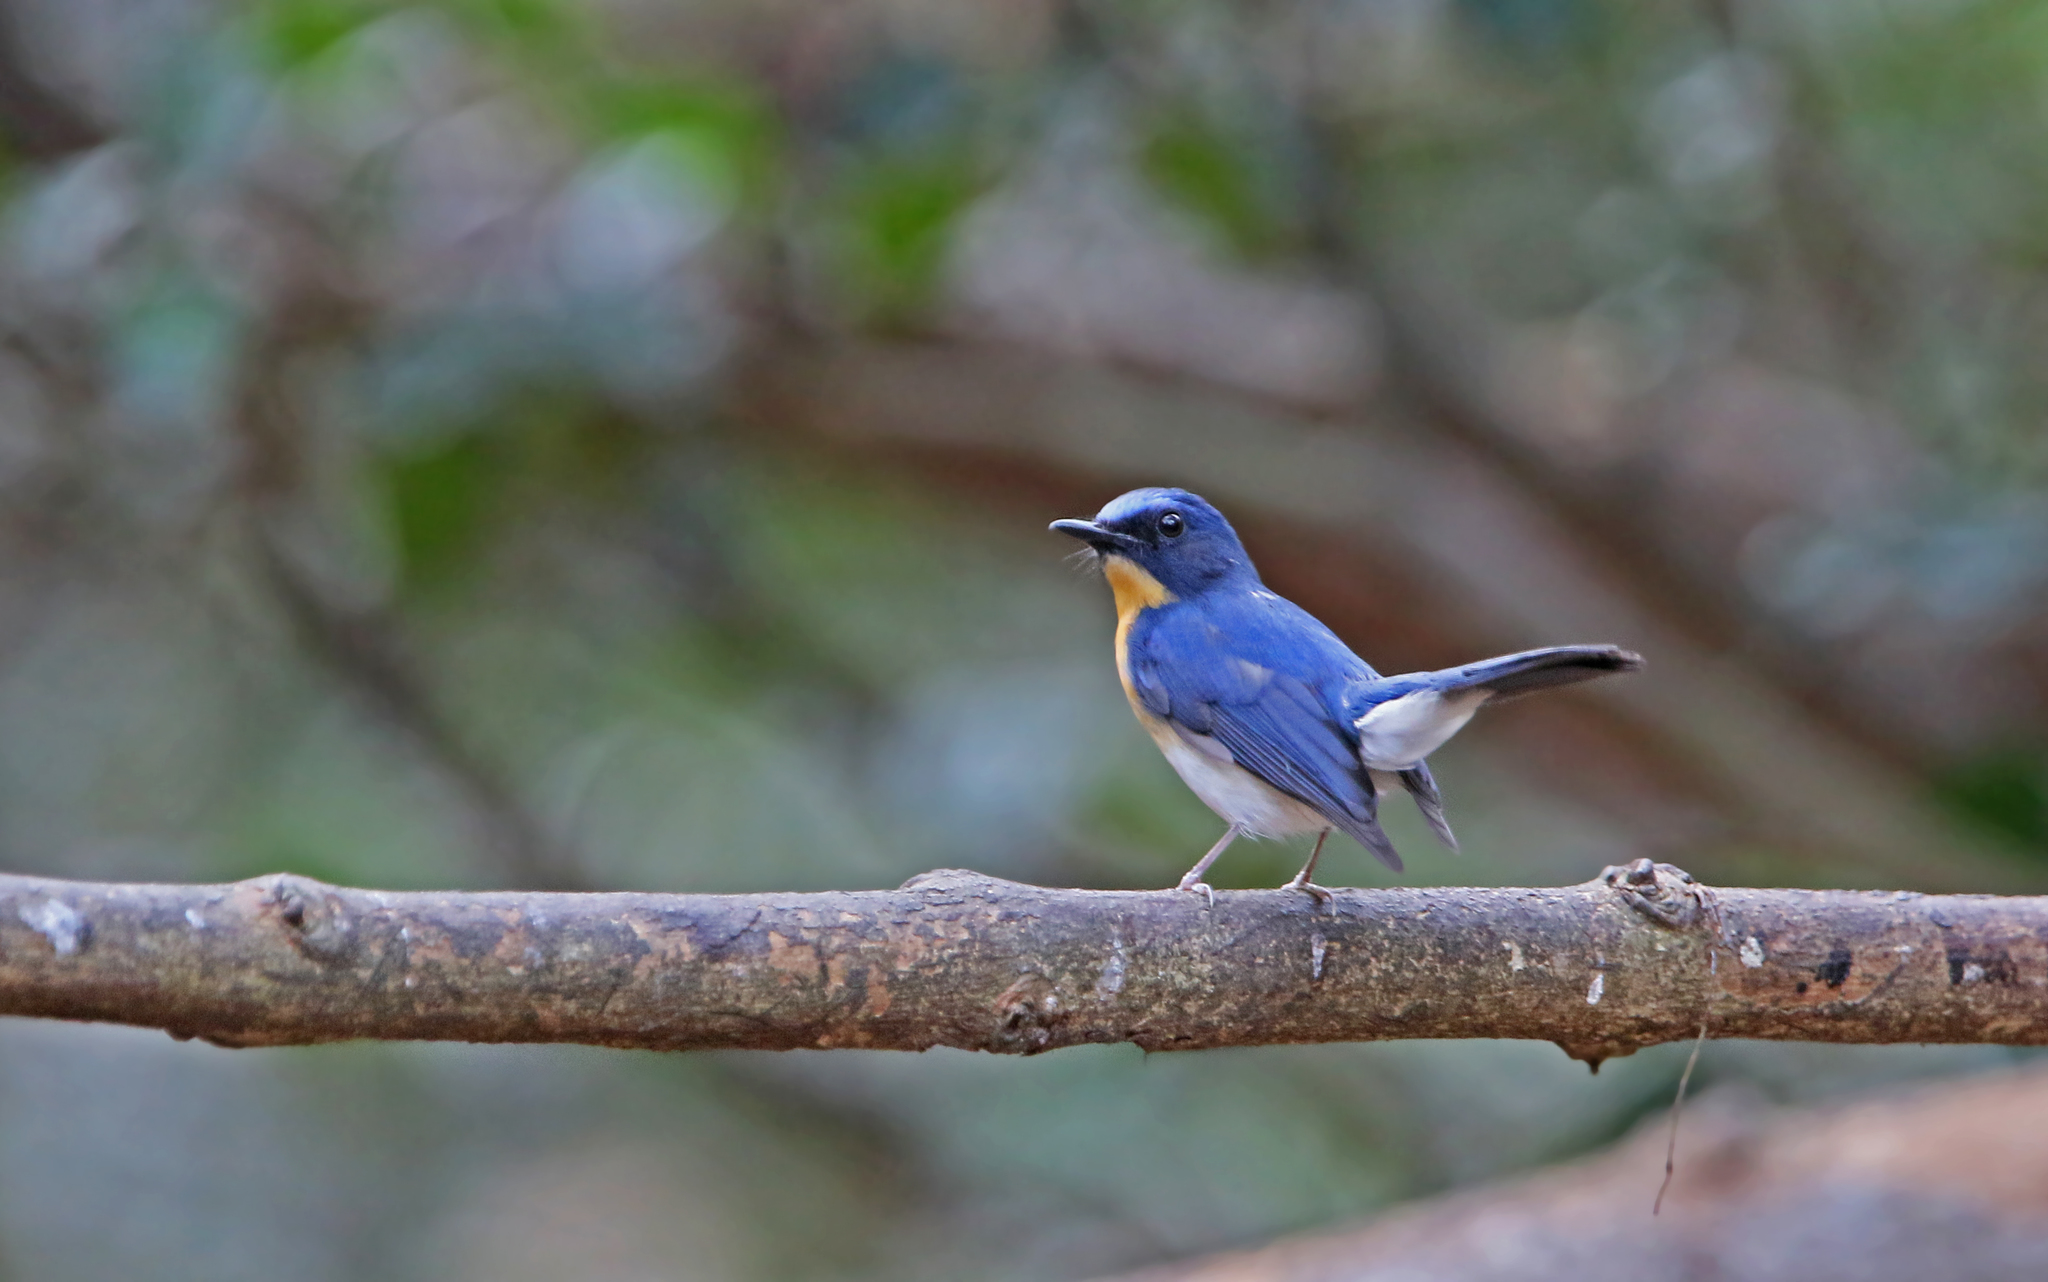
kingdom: Animalia
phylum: Chordata
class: Aves
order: Passeriformes
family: Muscicapidae
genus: Cyornis
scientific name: Cyornis tickelliae
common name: Tickell's blue flycatcher
